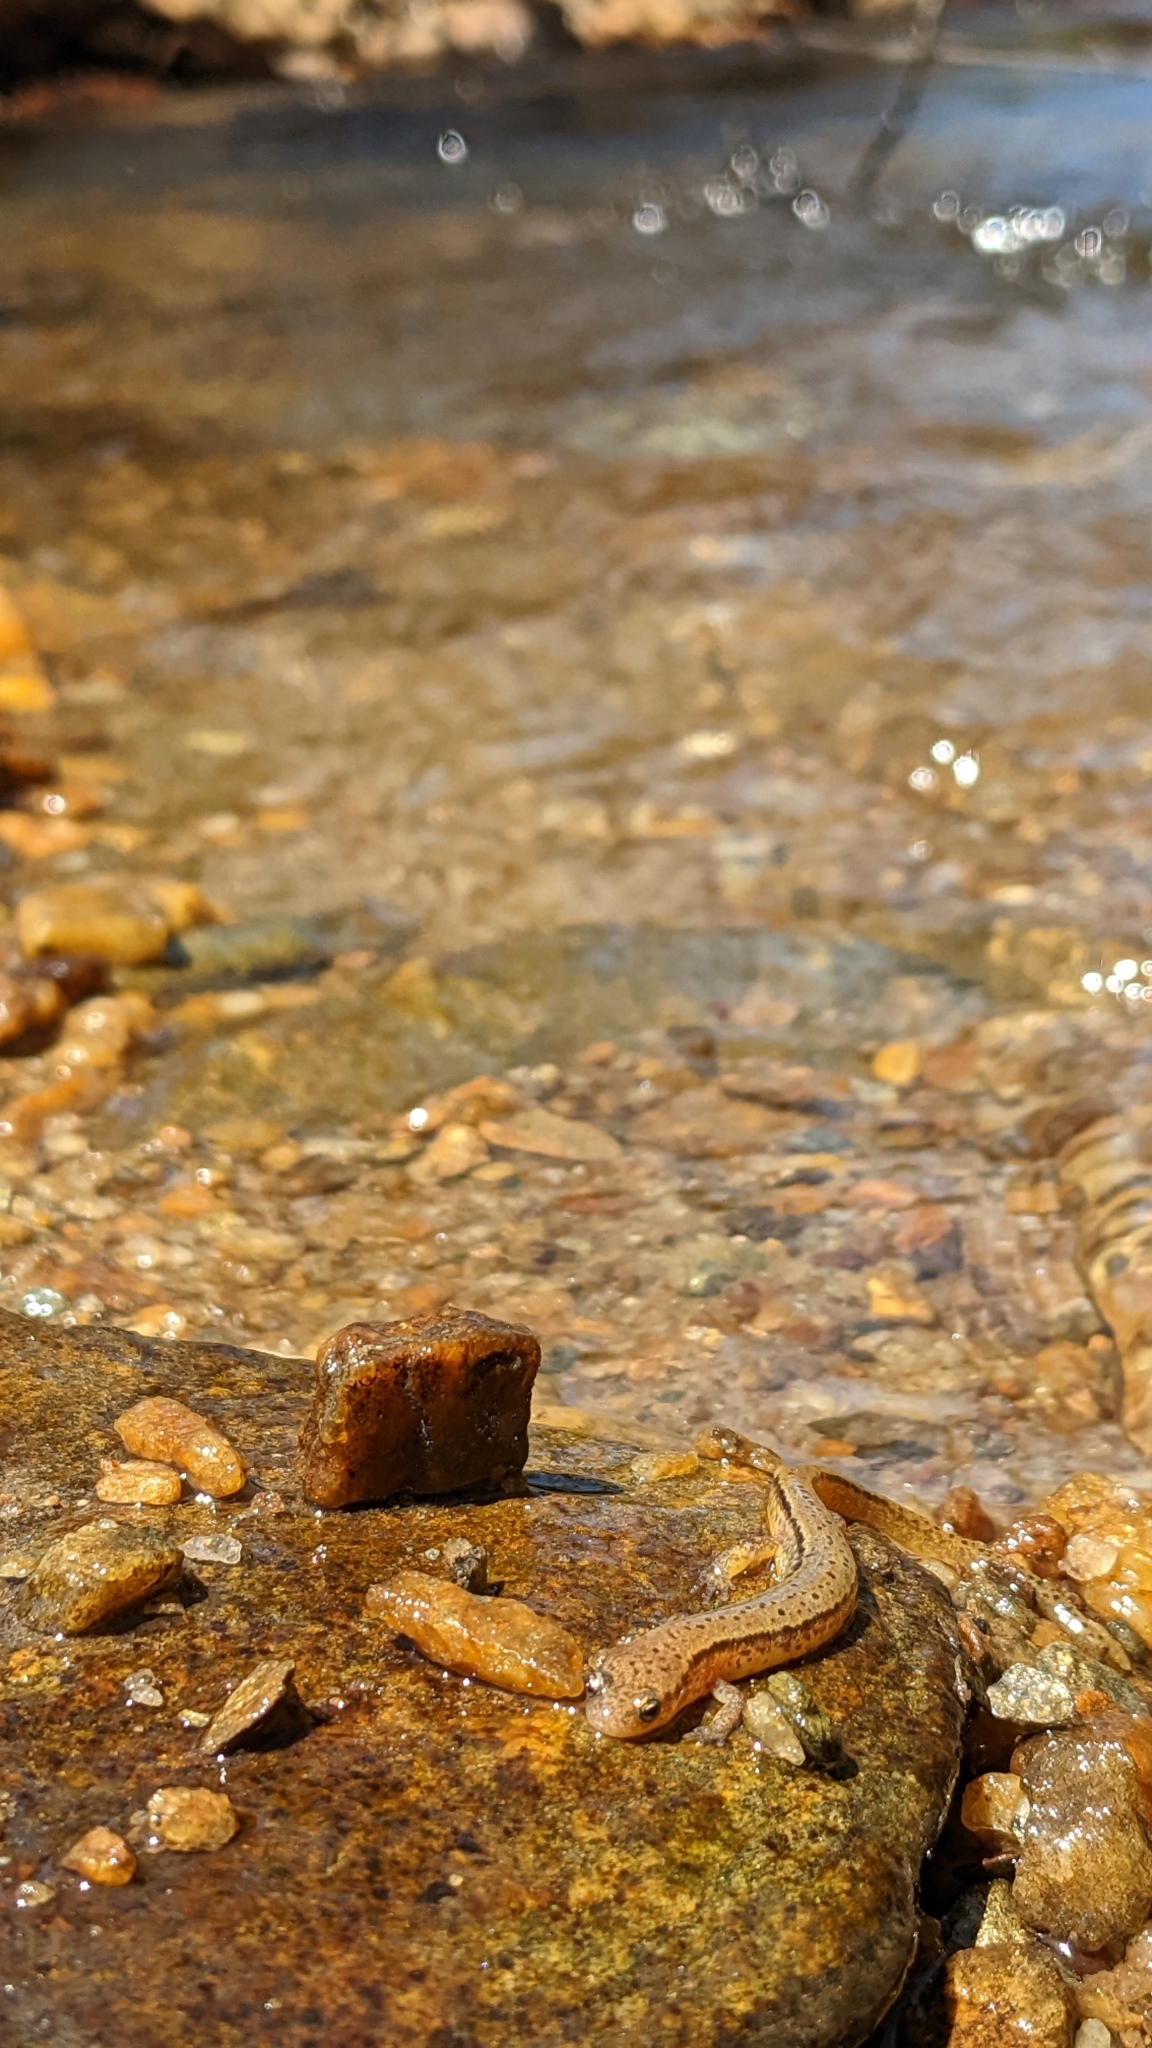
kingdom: Animalia
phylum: Chordata
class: Amphibia
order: Caudata
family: Plethodontidae
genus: Eurycea
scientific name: Eurycea wilderae
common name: Blue ridge two-lined salamander
